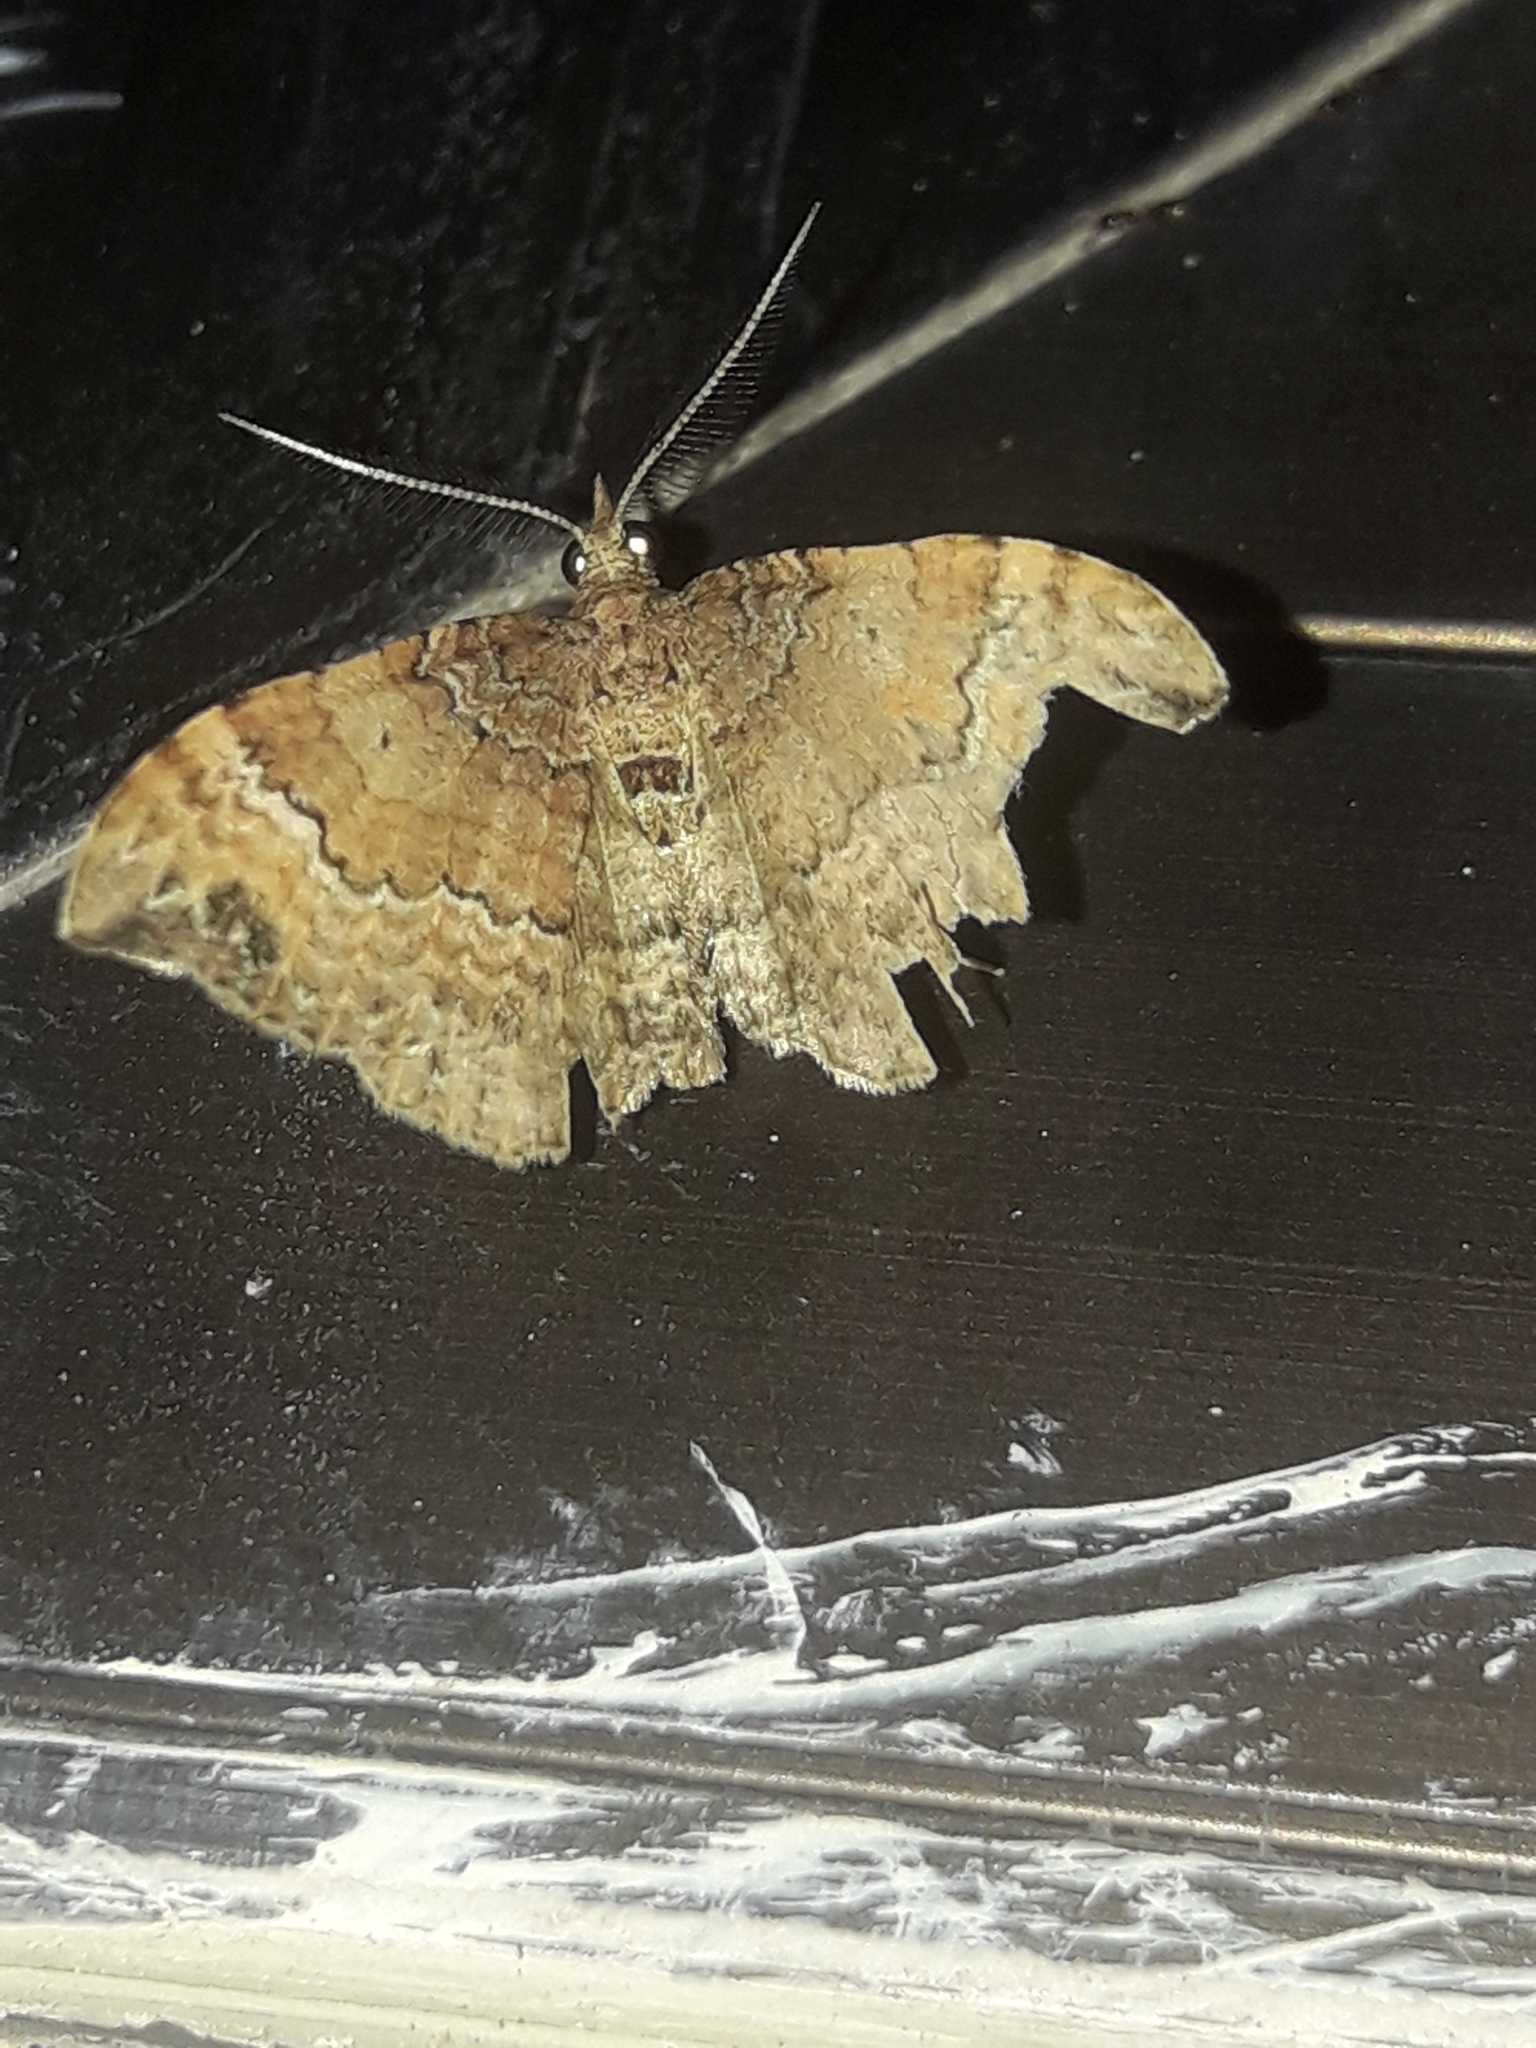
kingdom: Animalia
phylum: Arthropoda
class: Insecta
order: Lepidoptera
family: Geometridae
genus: Homodotis
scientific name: Homodotis megaspilata
